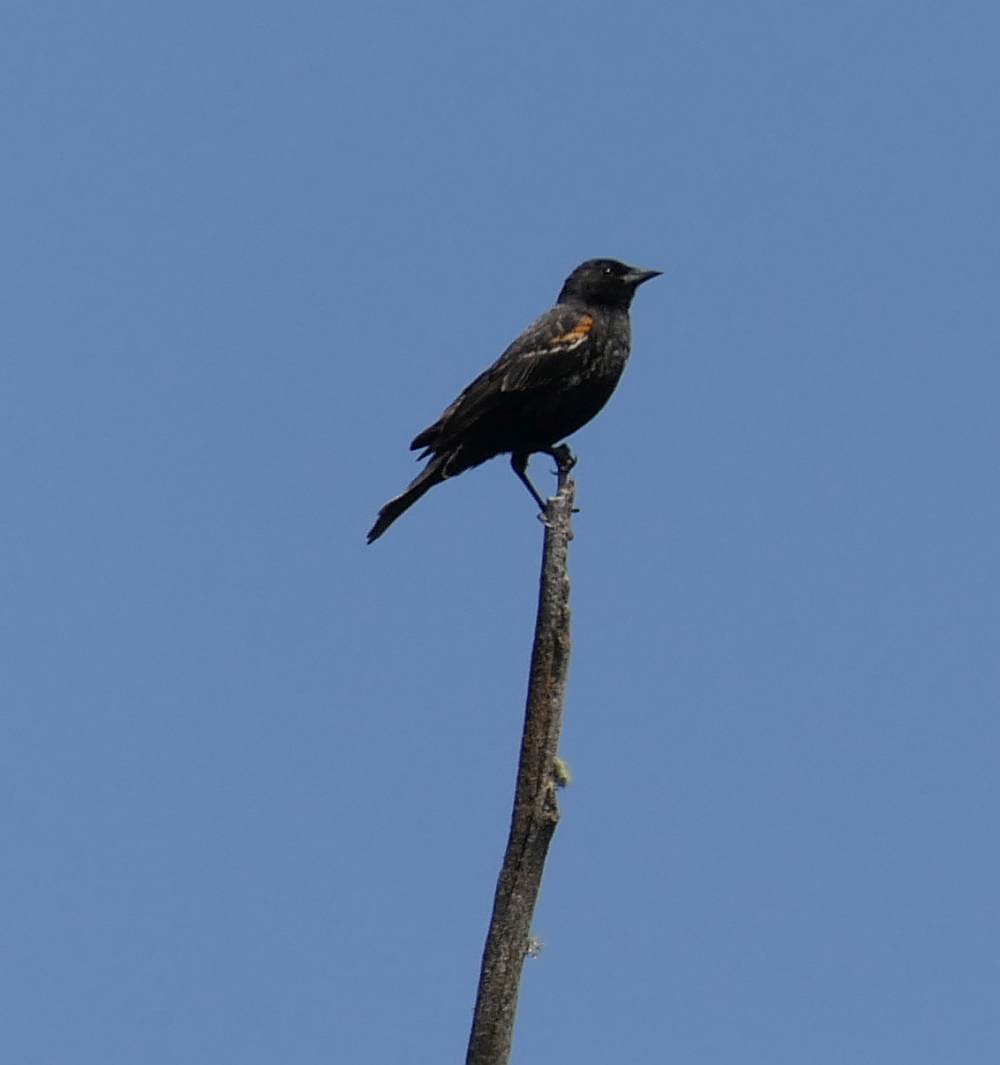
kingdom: Animalia
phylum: Chordata
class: Aves
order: Passeriformes
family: Icteridae
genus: Agelaius
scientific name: Agelaius phoeniceus
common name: Red-winged blackbird
